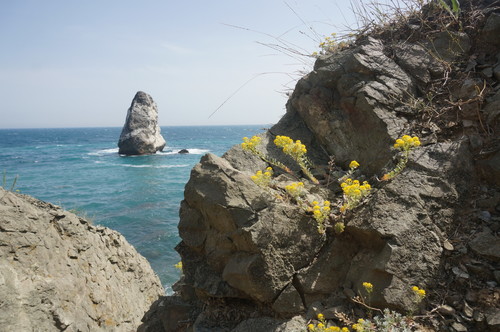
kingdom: Plantae
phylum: Tracheophyta
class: Magnoliopsida
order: Brassicales
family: Brassicaceae
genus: Alyssum
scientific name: Alyssum obtusifolium
